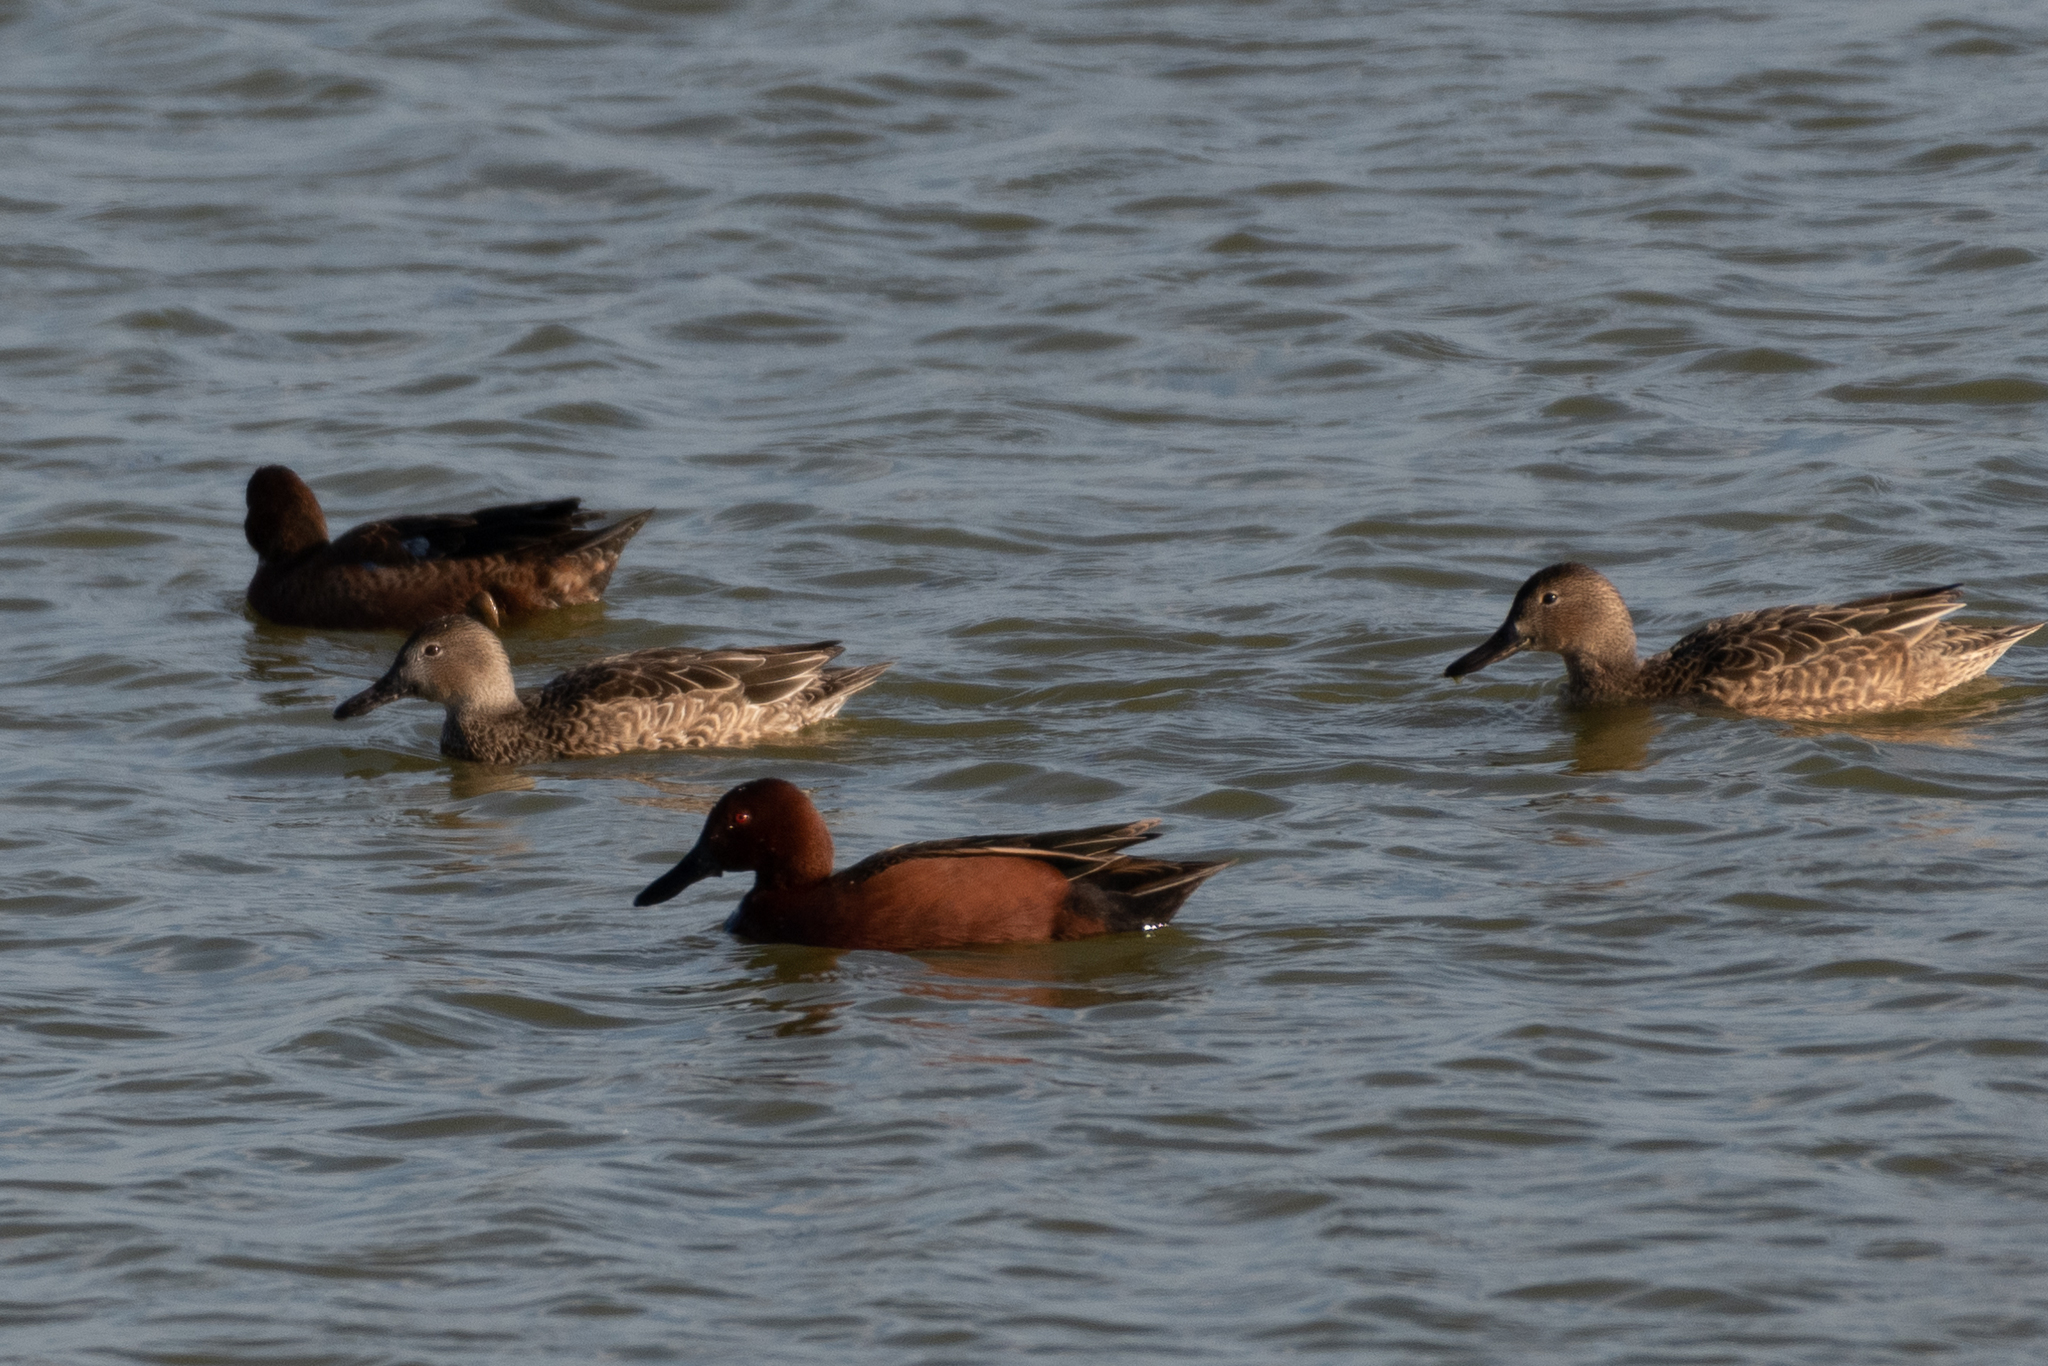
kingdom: Animalia
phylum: Chordata
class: Aves
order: Anseriformes
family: Anatidae
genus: Spatula
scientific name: Spatula cyanoptera
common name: Cinnamon teal
